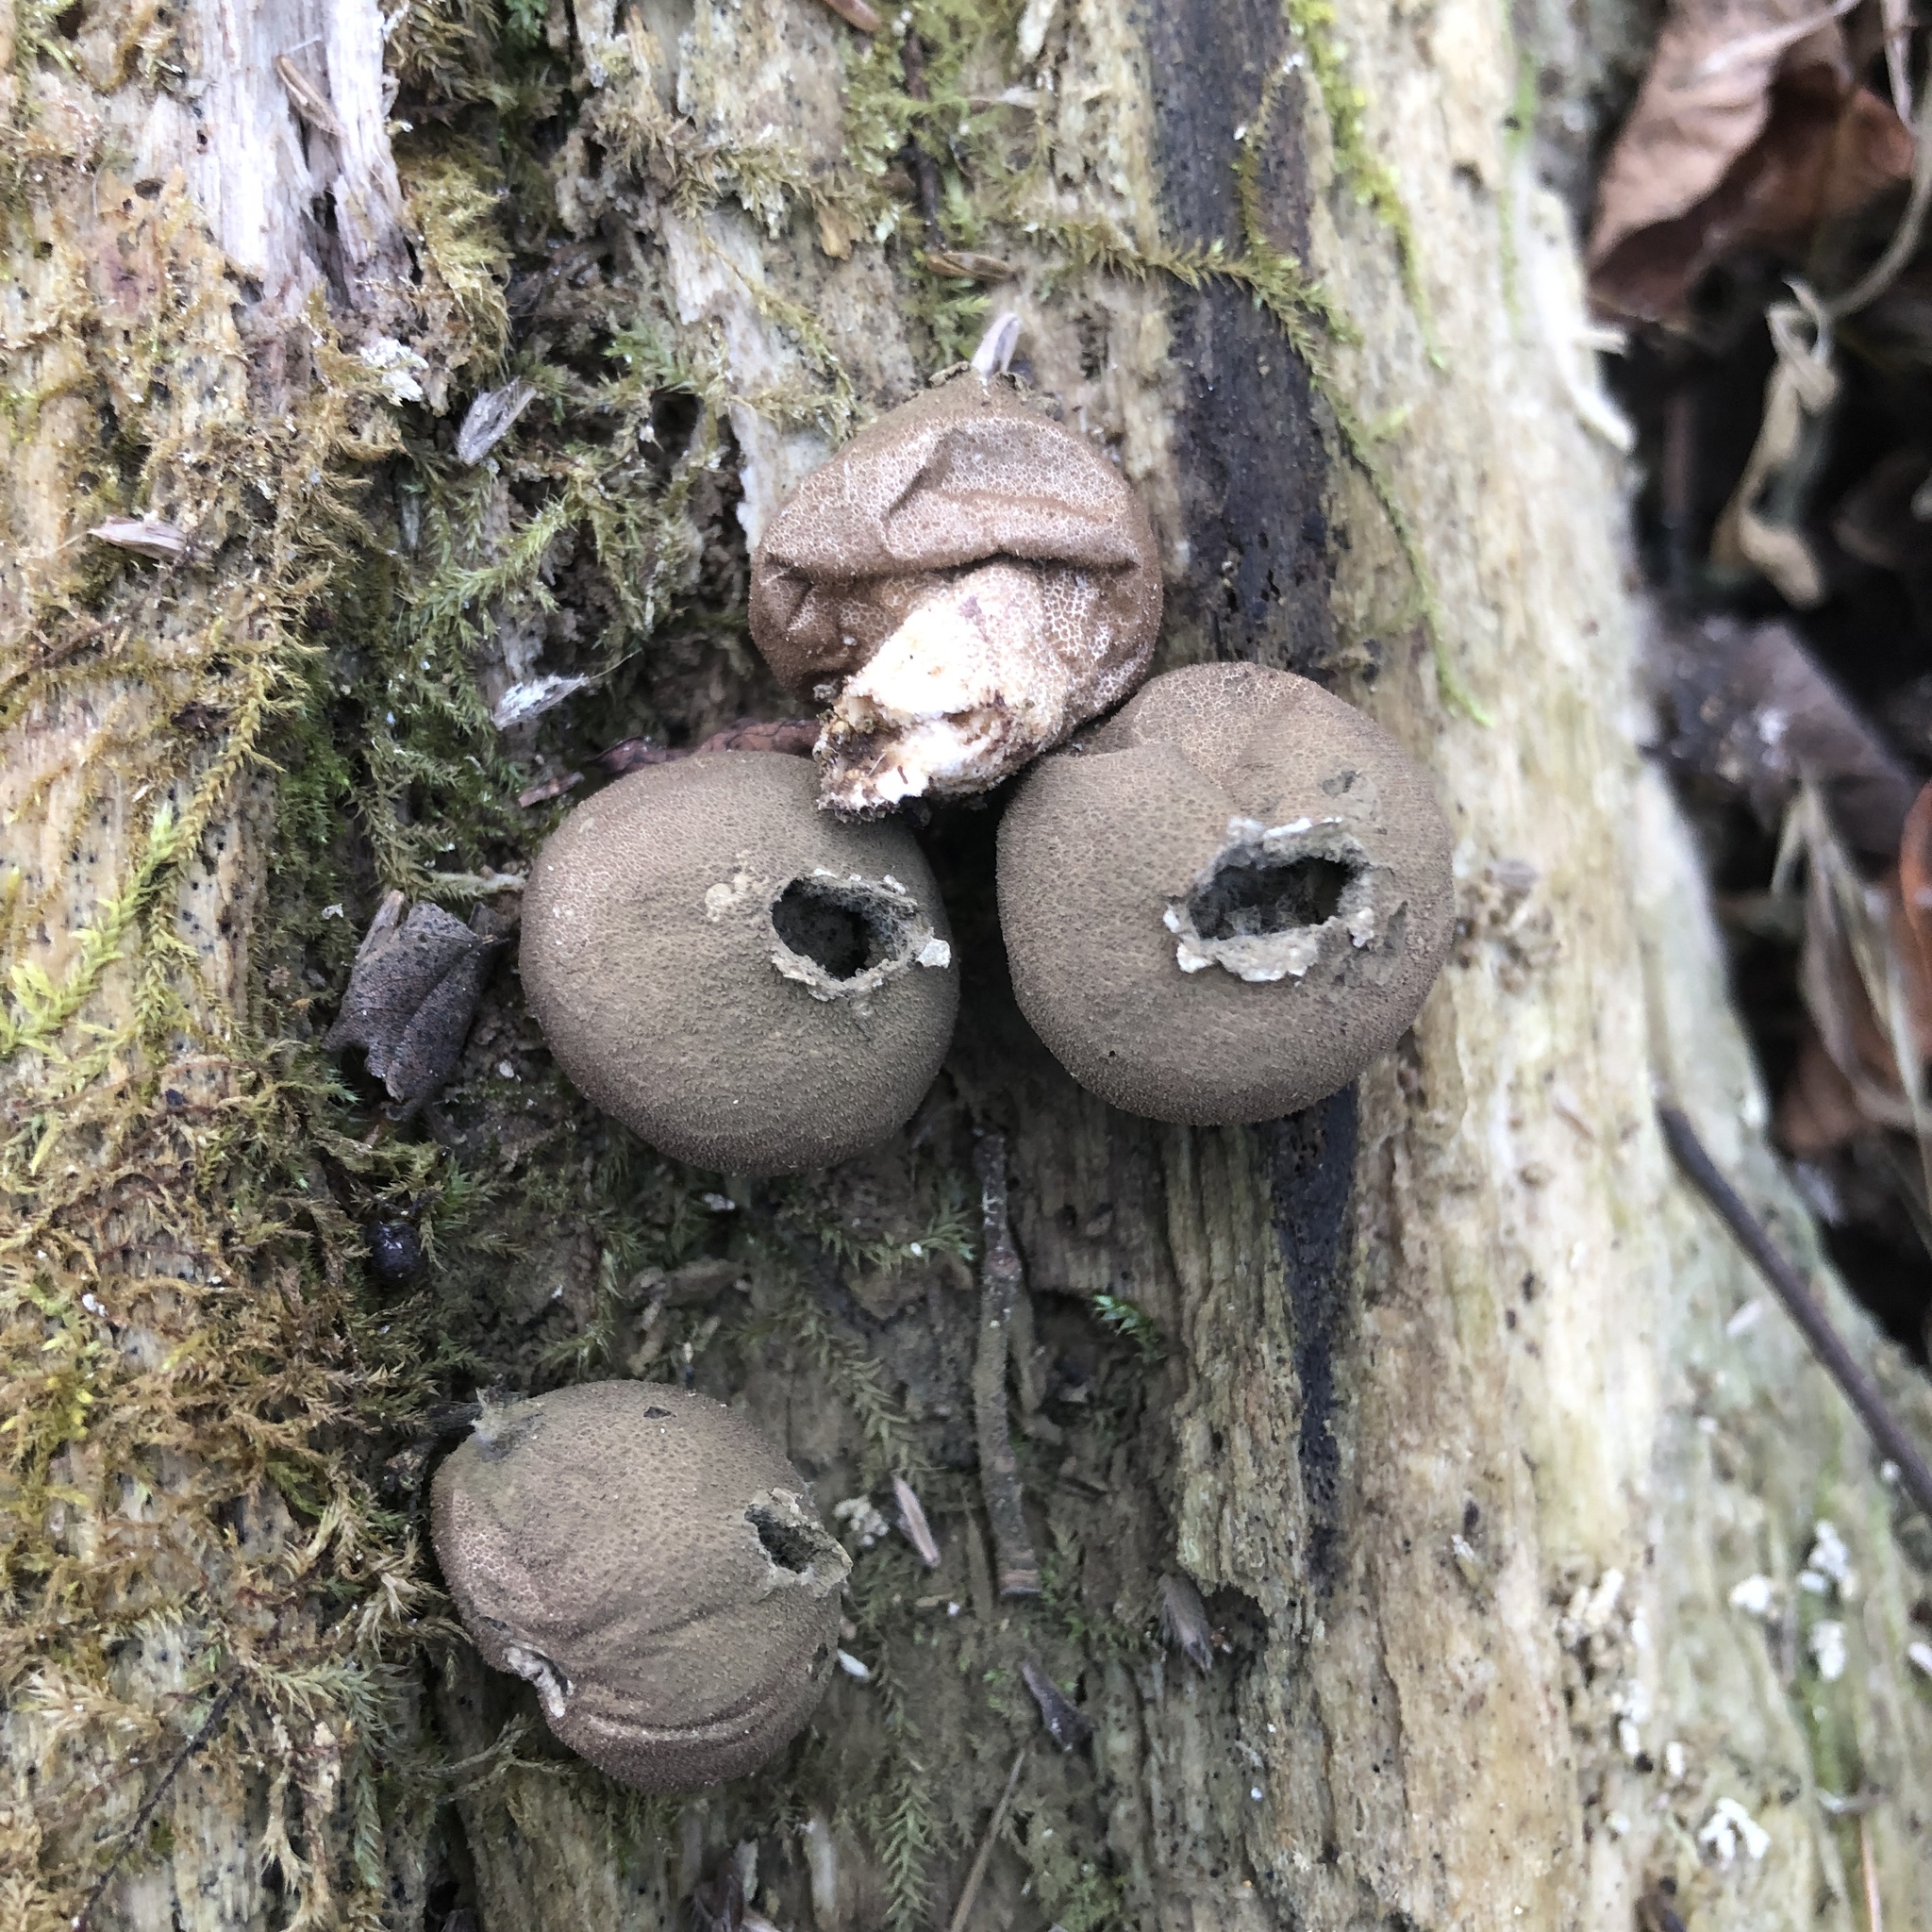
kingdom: Fungi
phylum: Basidiomycota
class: Agaricomycetes
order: Agaricales
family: Lycoperdaceae
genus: Apioperdon
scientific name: Apioperdon pyriforme
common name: Pear-shaped puffball
